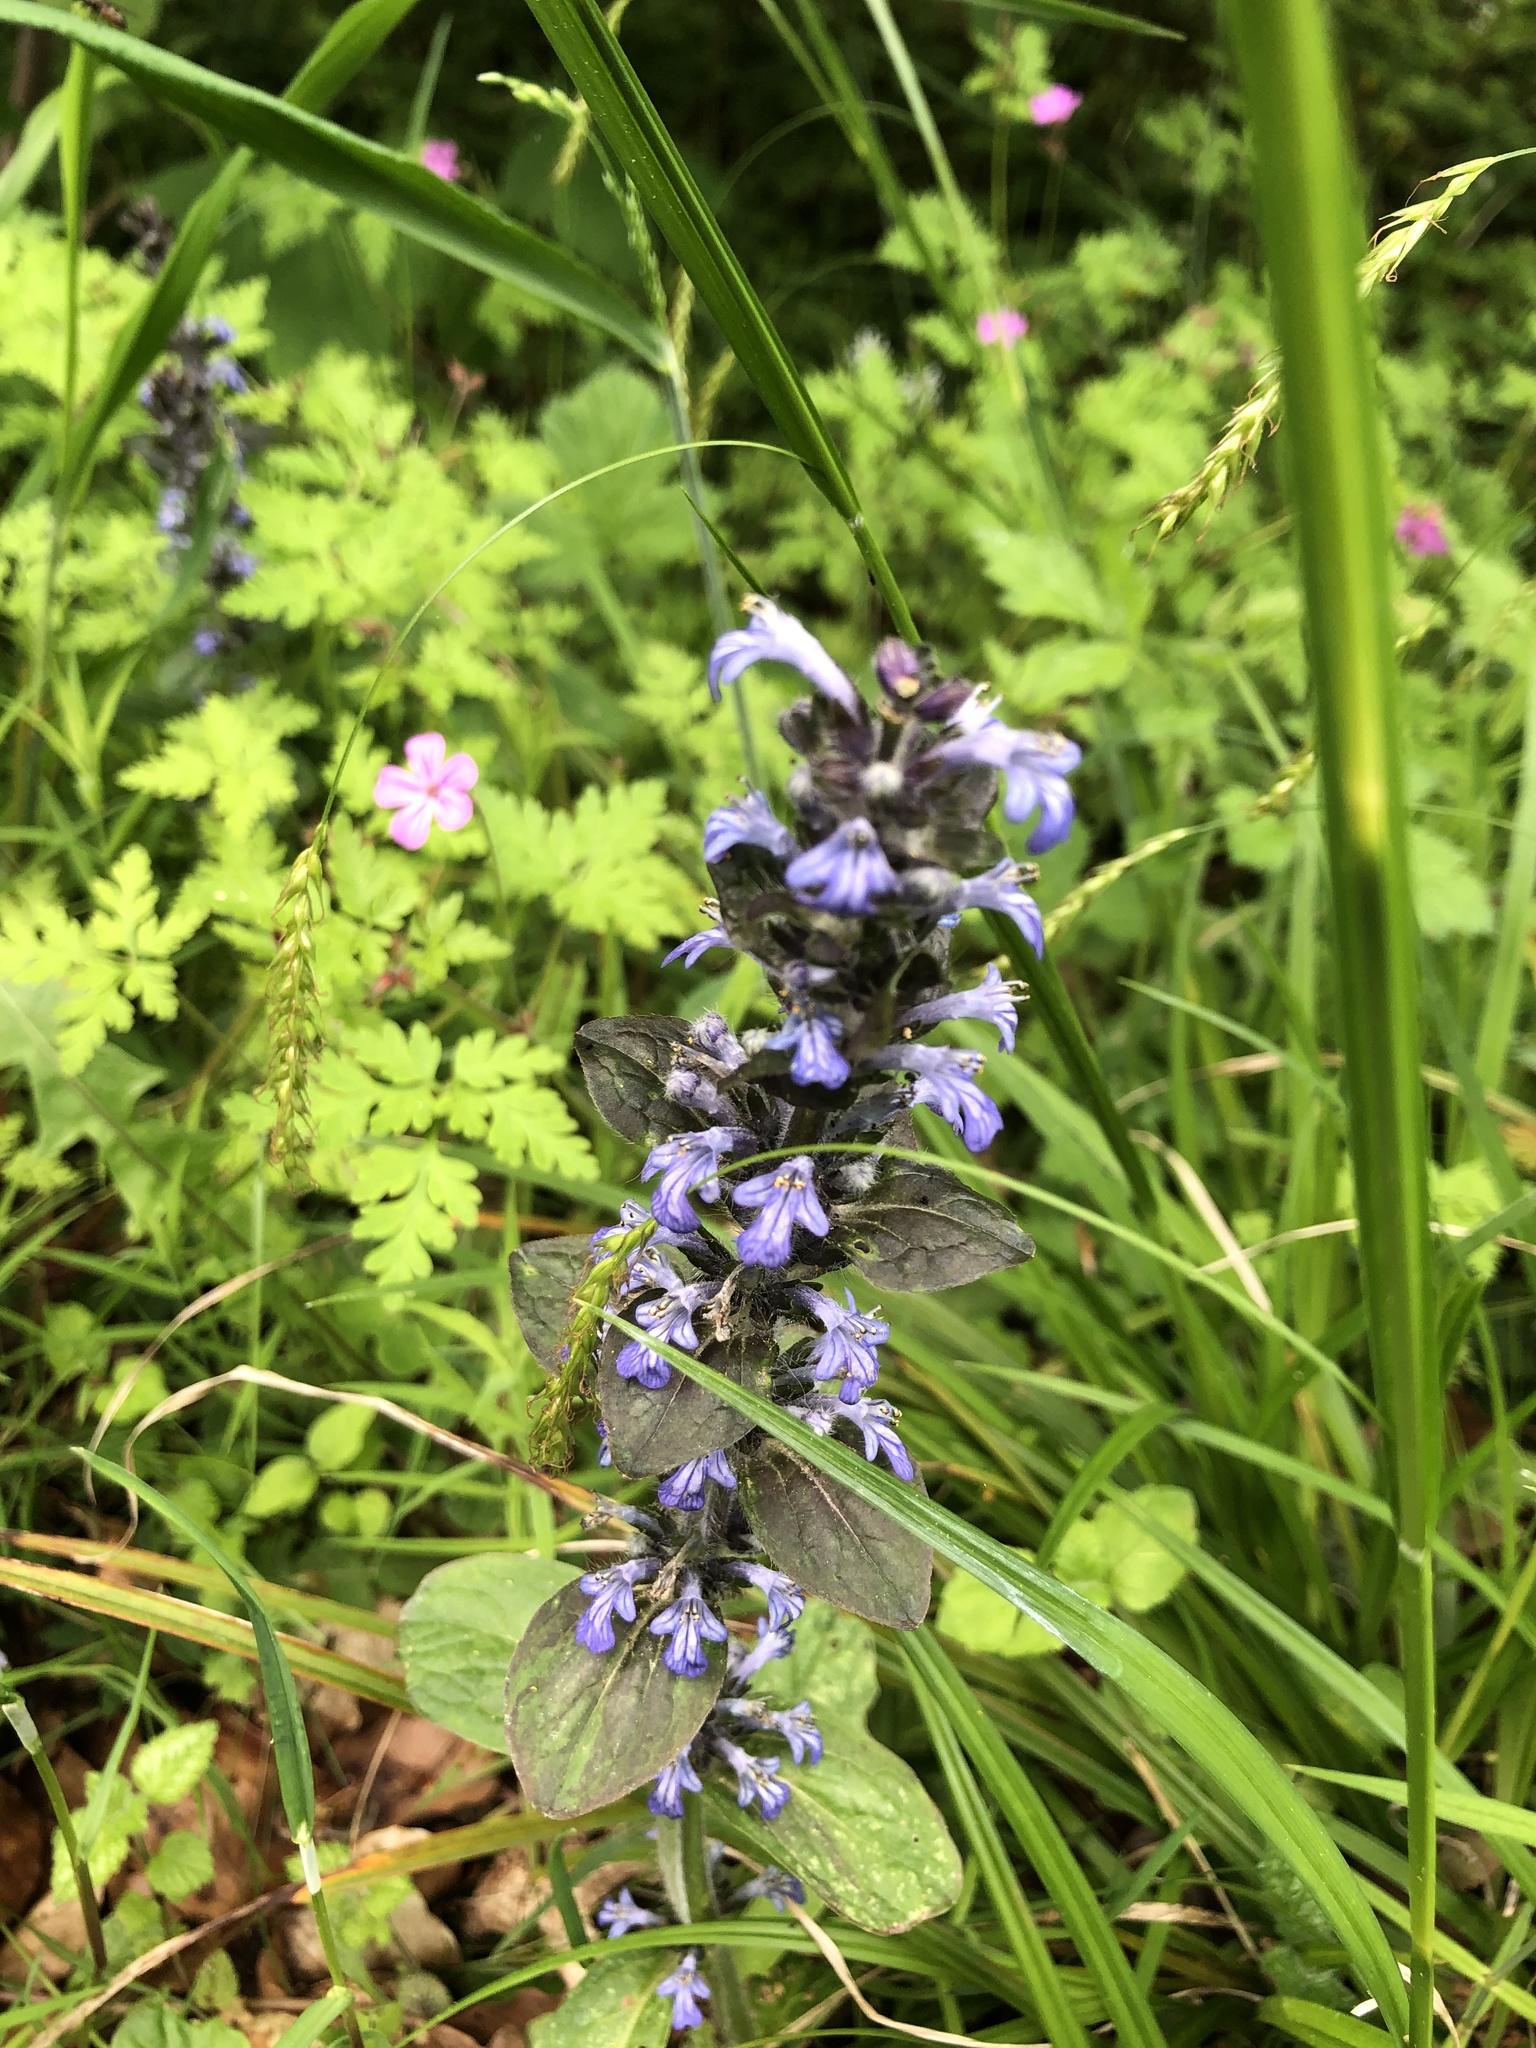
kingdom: Plantae
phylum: Tracheophyta
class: Magnoliopsida
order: Lamiales
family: Lamiaceae
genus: Ajuga
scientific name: Ajuga reptans
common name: Bugle
